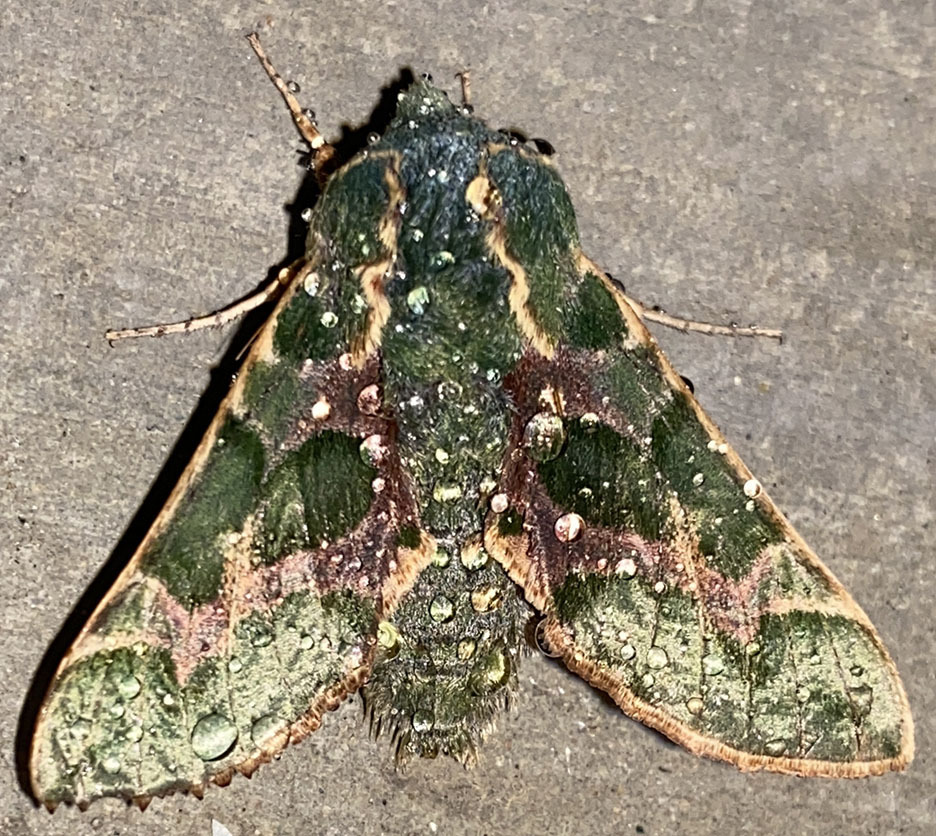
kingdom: Animalia
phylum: Arthropoda
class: Insecta
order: Lepidoptera
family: Sphingidae
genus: Proserpinus
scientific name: Proserpinus lucidus
